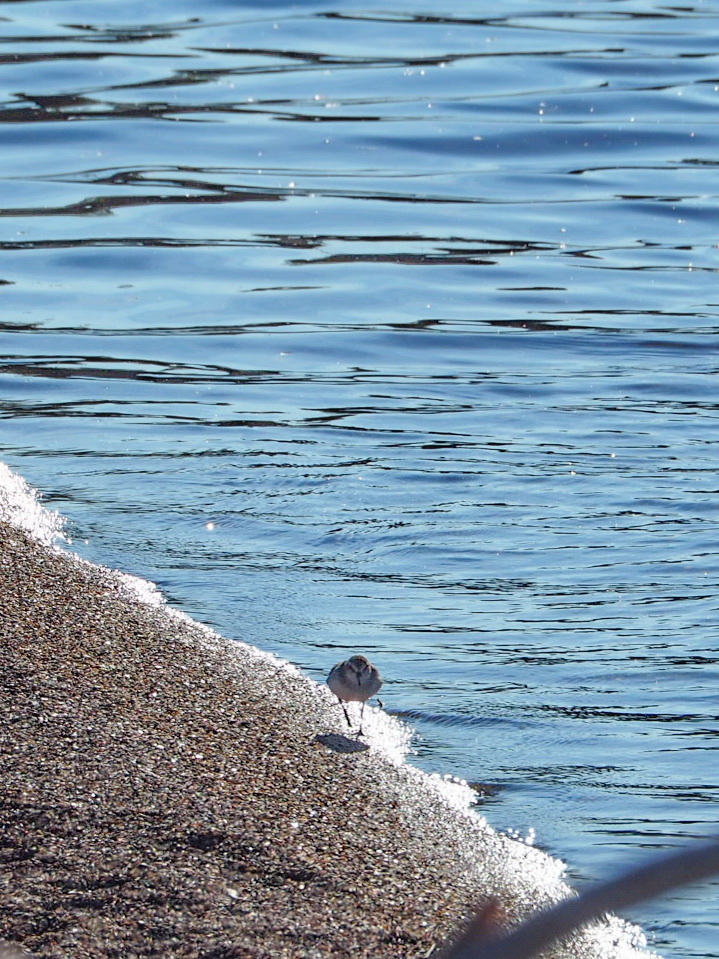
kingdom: Animalia
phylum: Chordata
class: Aves
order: Charadriiformes
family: Scolopacidae
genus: Calidris
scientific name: Calidris pusilla
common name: Semipalmated sandpiper
